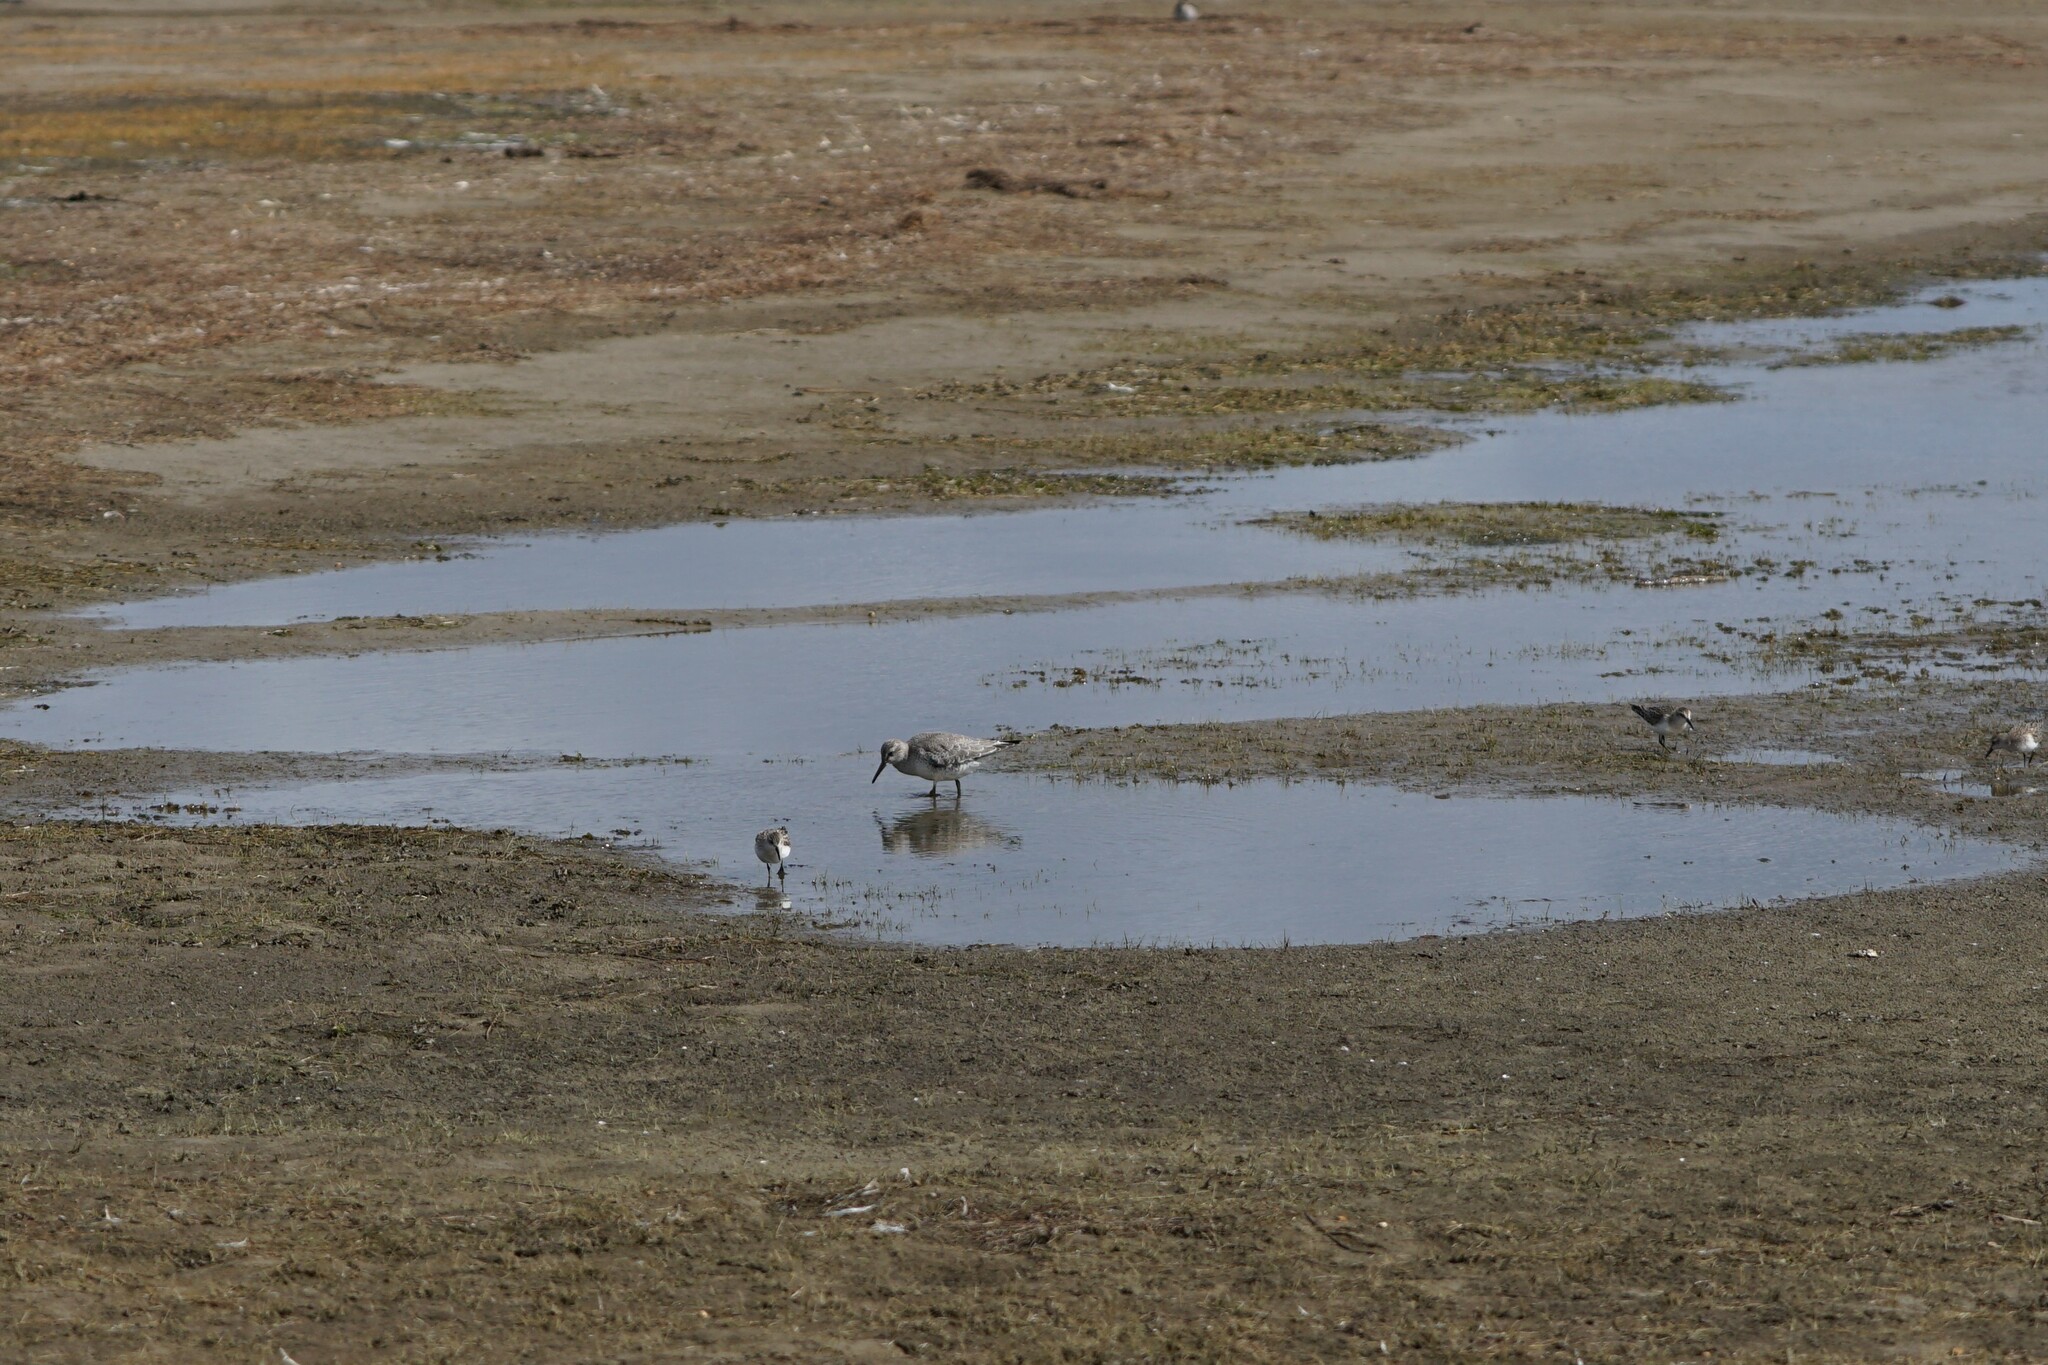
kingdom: Animalia
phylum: Chordata
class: Aves
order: Charadriiformes
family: Scolopacidae
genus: Calidris
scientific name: Calidris canutus
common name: Red knot
